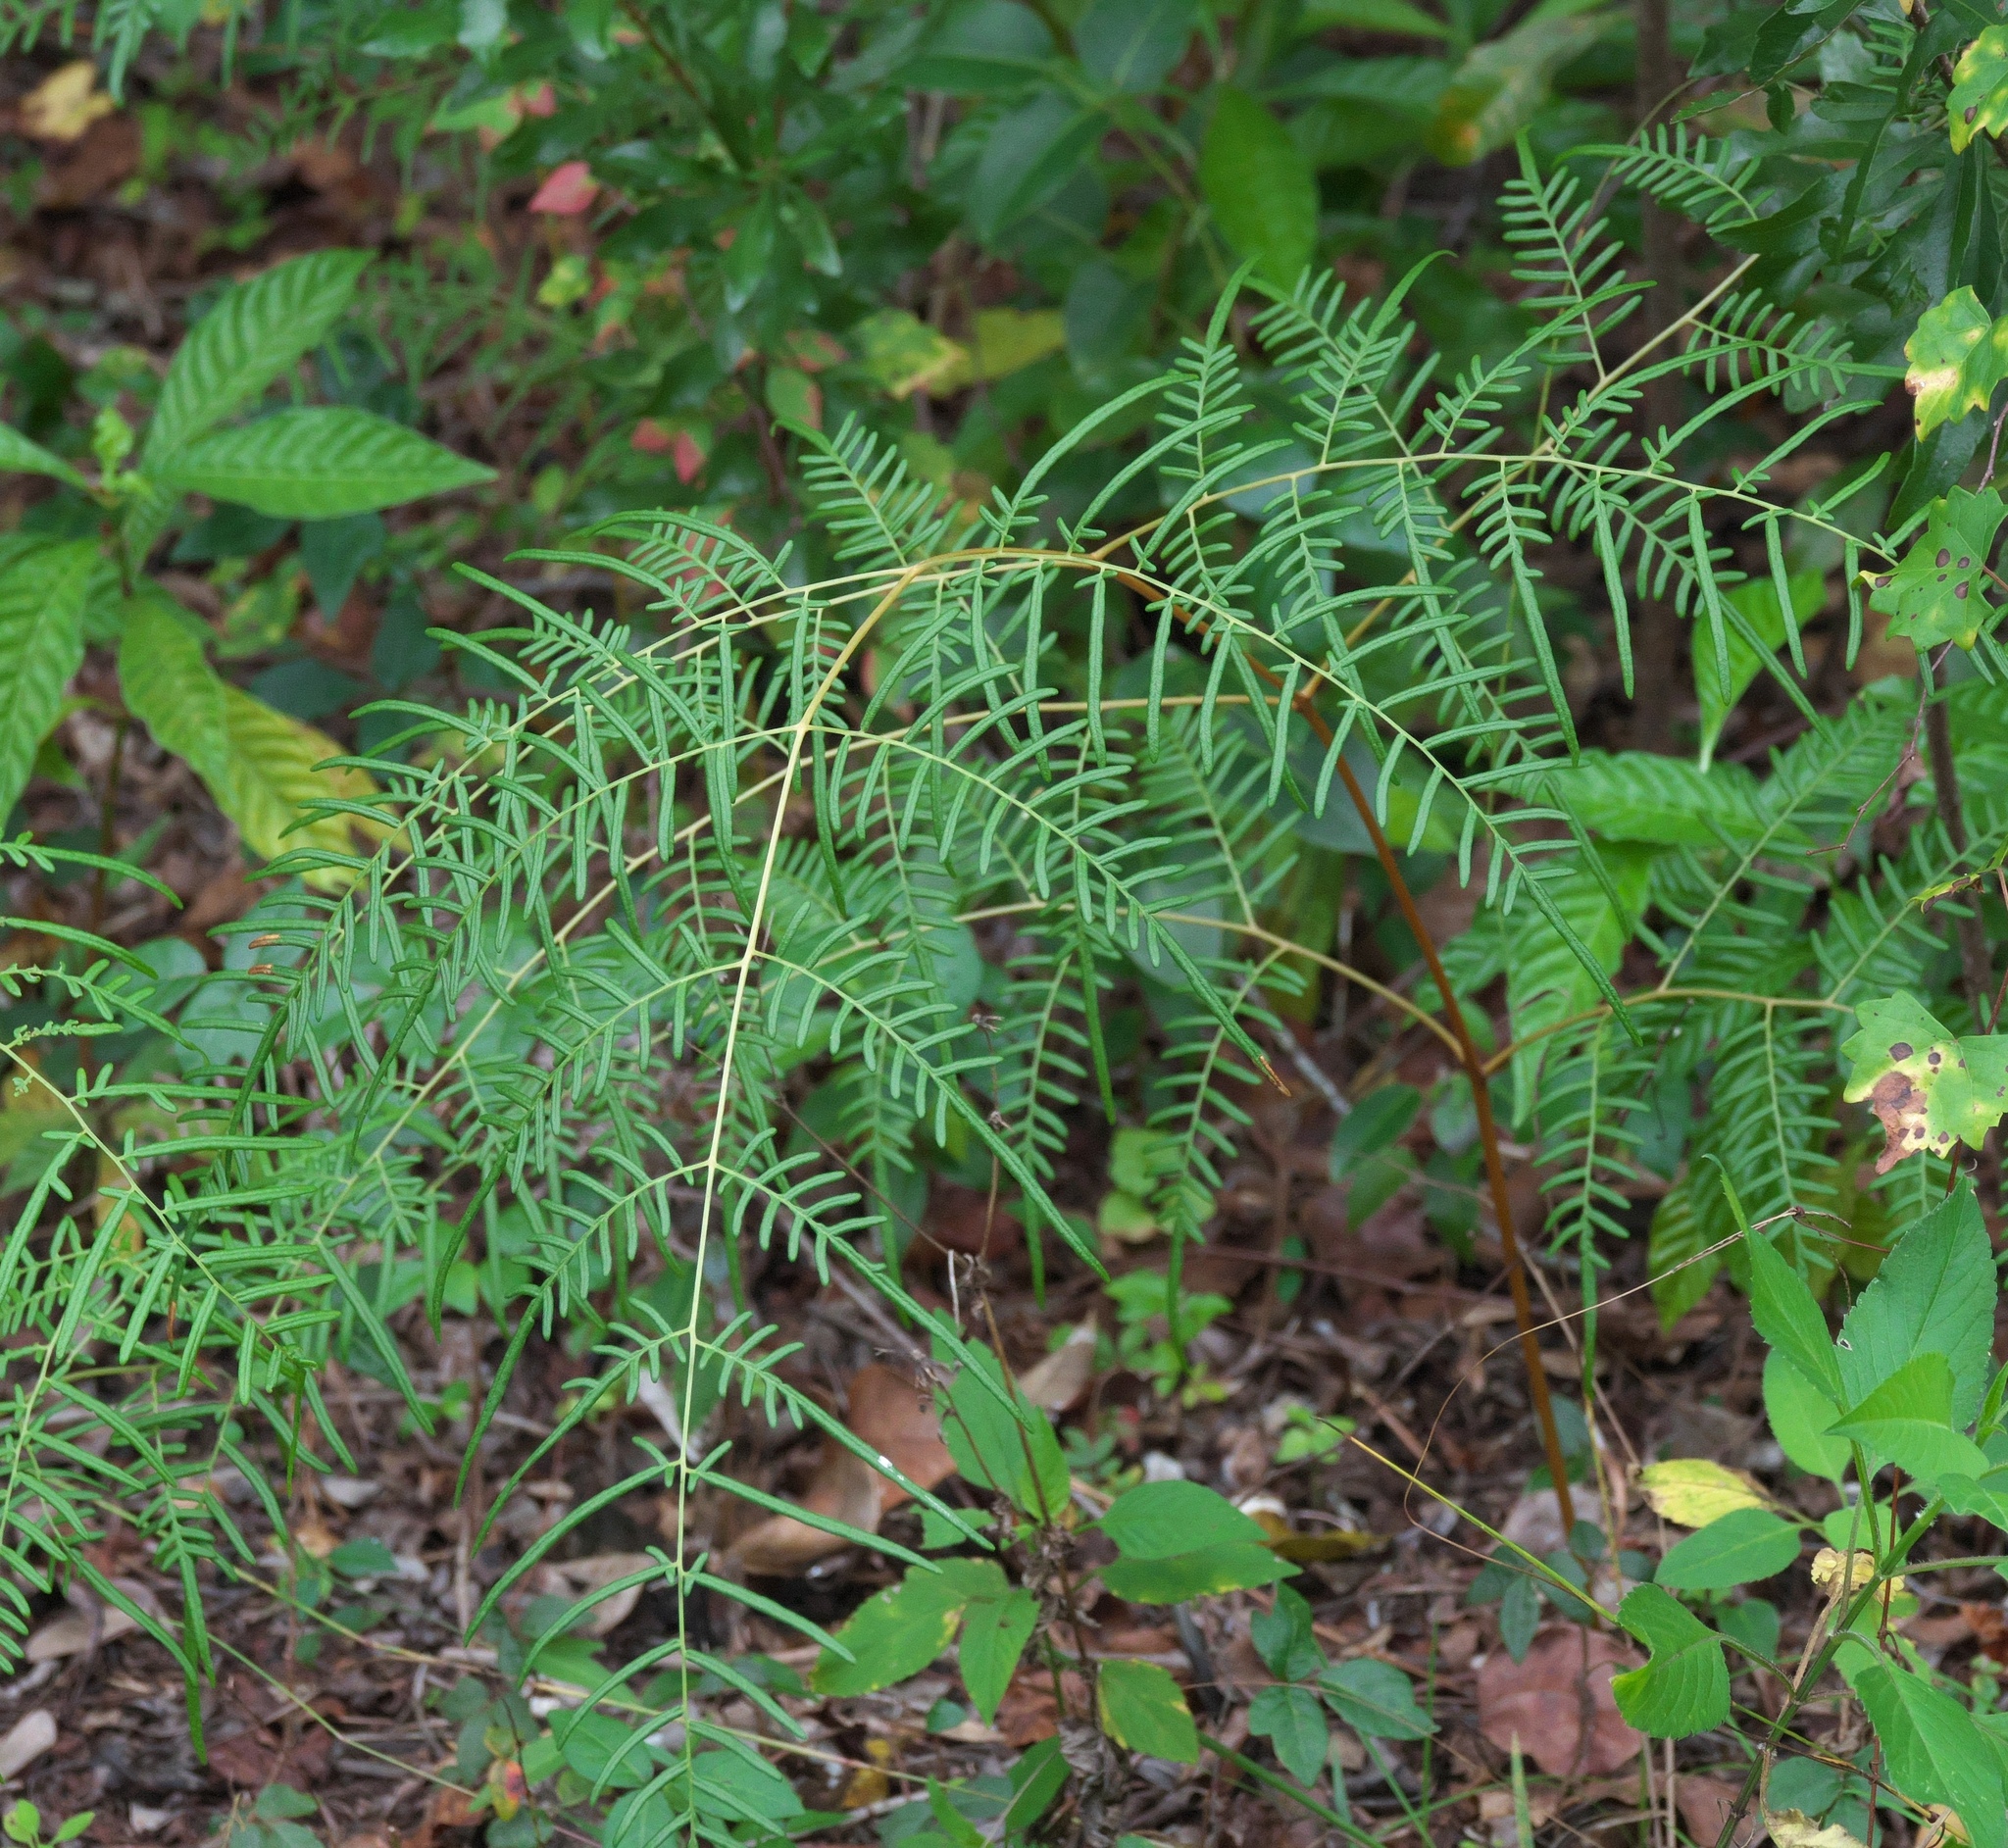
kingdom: Plantae
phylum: Tracheophyta
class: Polypodiopsida
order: Polypodiales
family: Dennstaedtiaceae
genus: Pteridium
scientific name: Pteridium caudatum
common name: Southern bracken fern
